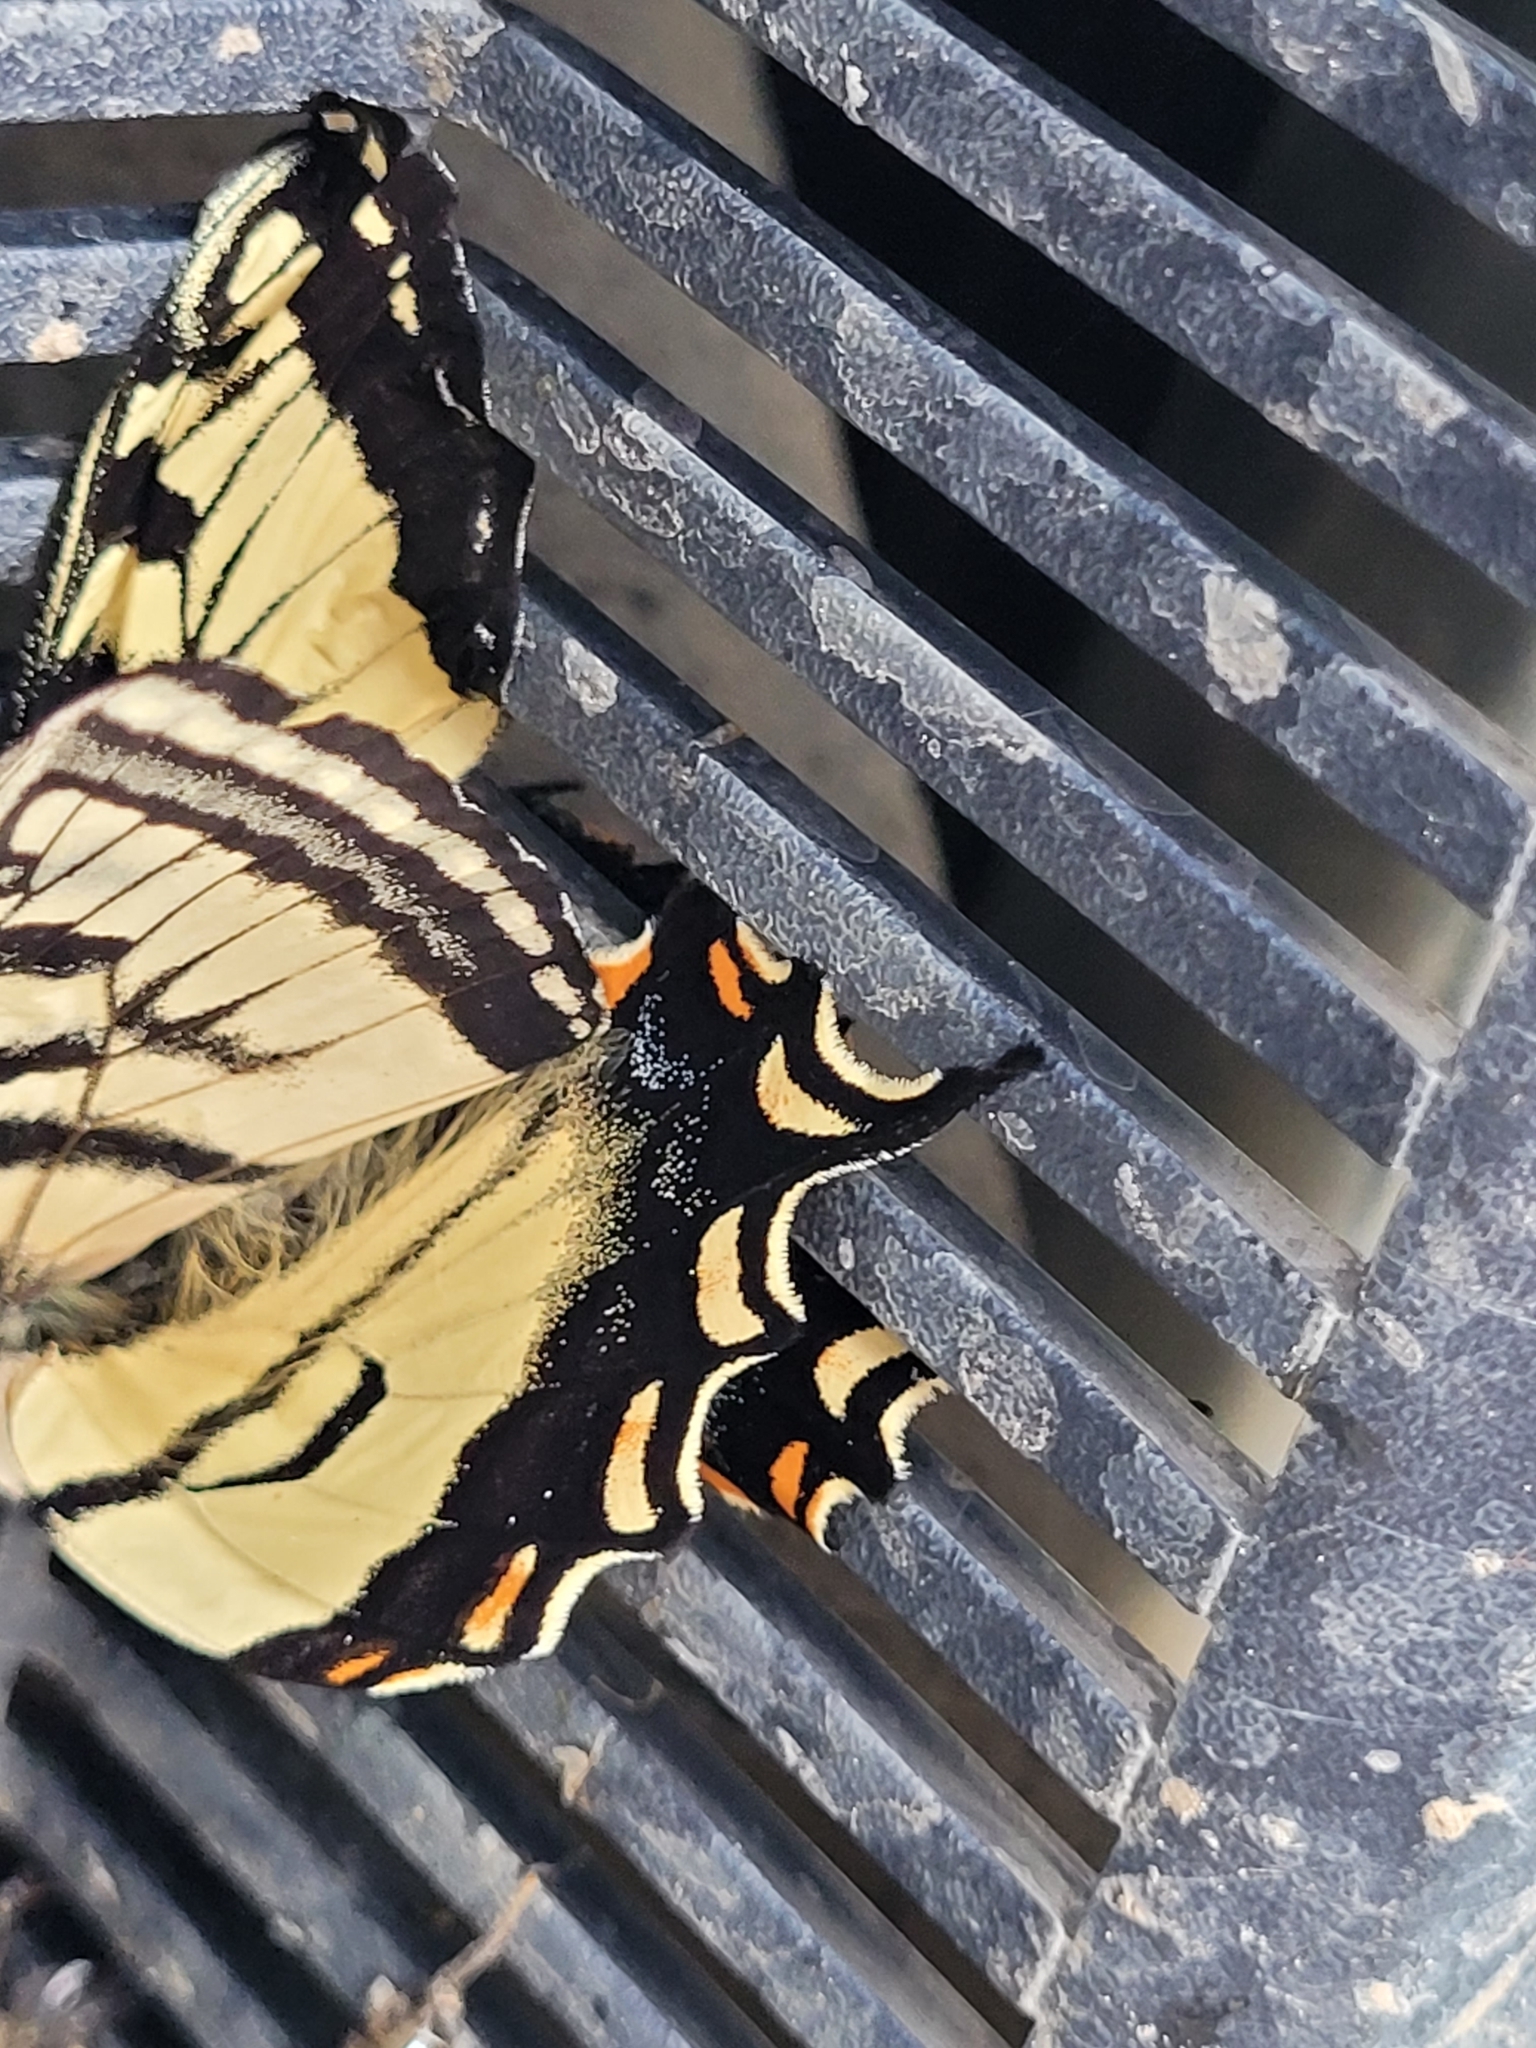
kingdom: Animalia
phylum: Arthropoda
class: Insecta
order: Lepidoptera
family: Papilionidae
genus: Papilio
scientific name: Papilio canadensis
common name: Canadian tiger swallowtail
